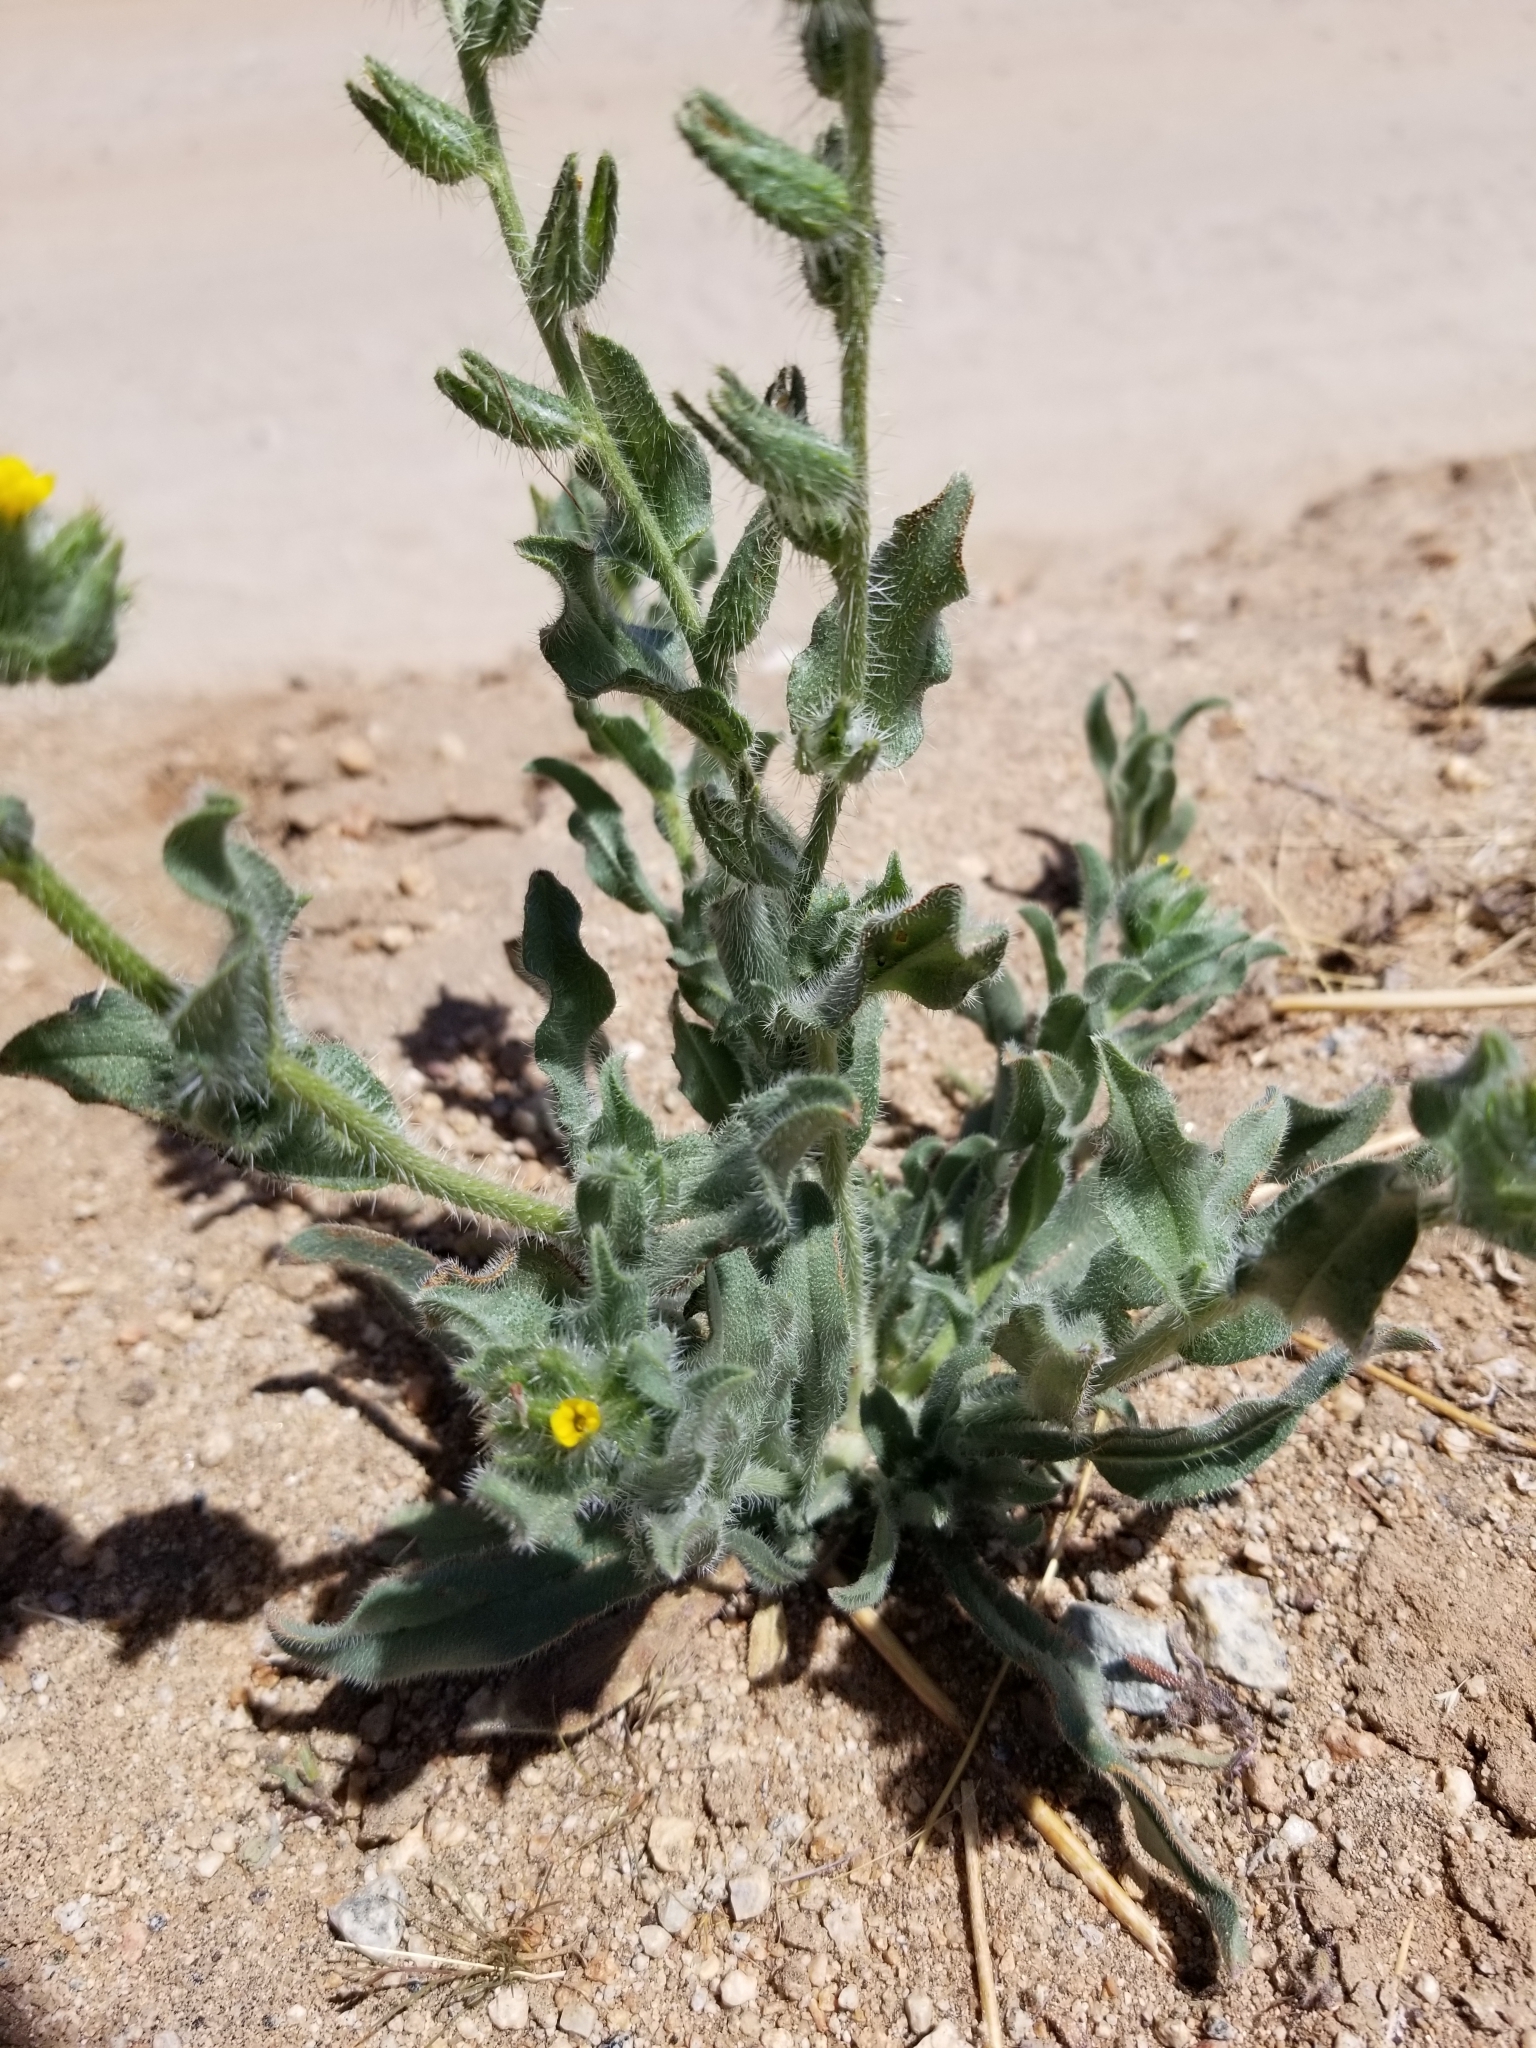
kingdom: Plantae
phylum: Tracheophyta
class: Magnoliopsida
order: Boraginales
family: Boraginaceae
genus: Amsinckia
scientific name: Amsinckia tessellata
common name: Tessellate fiddleneck
